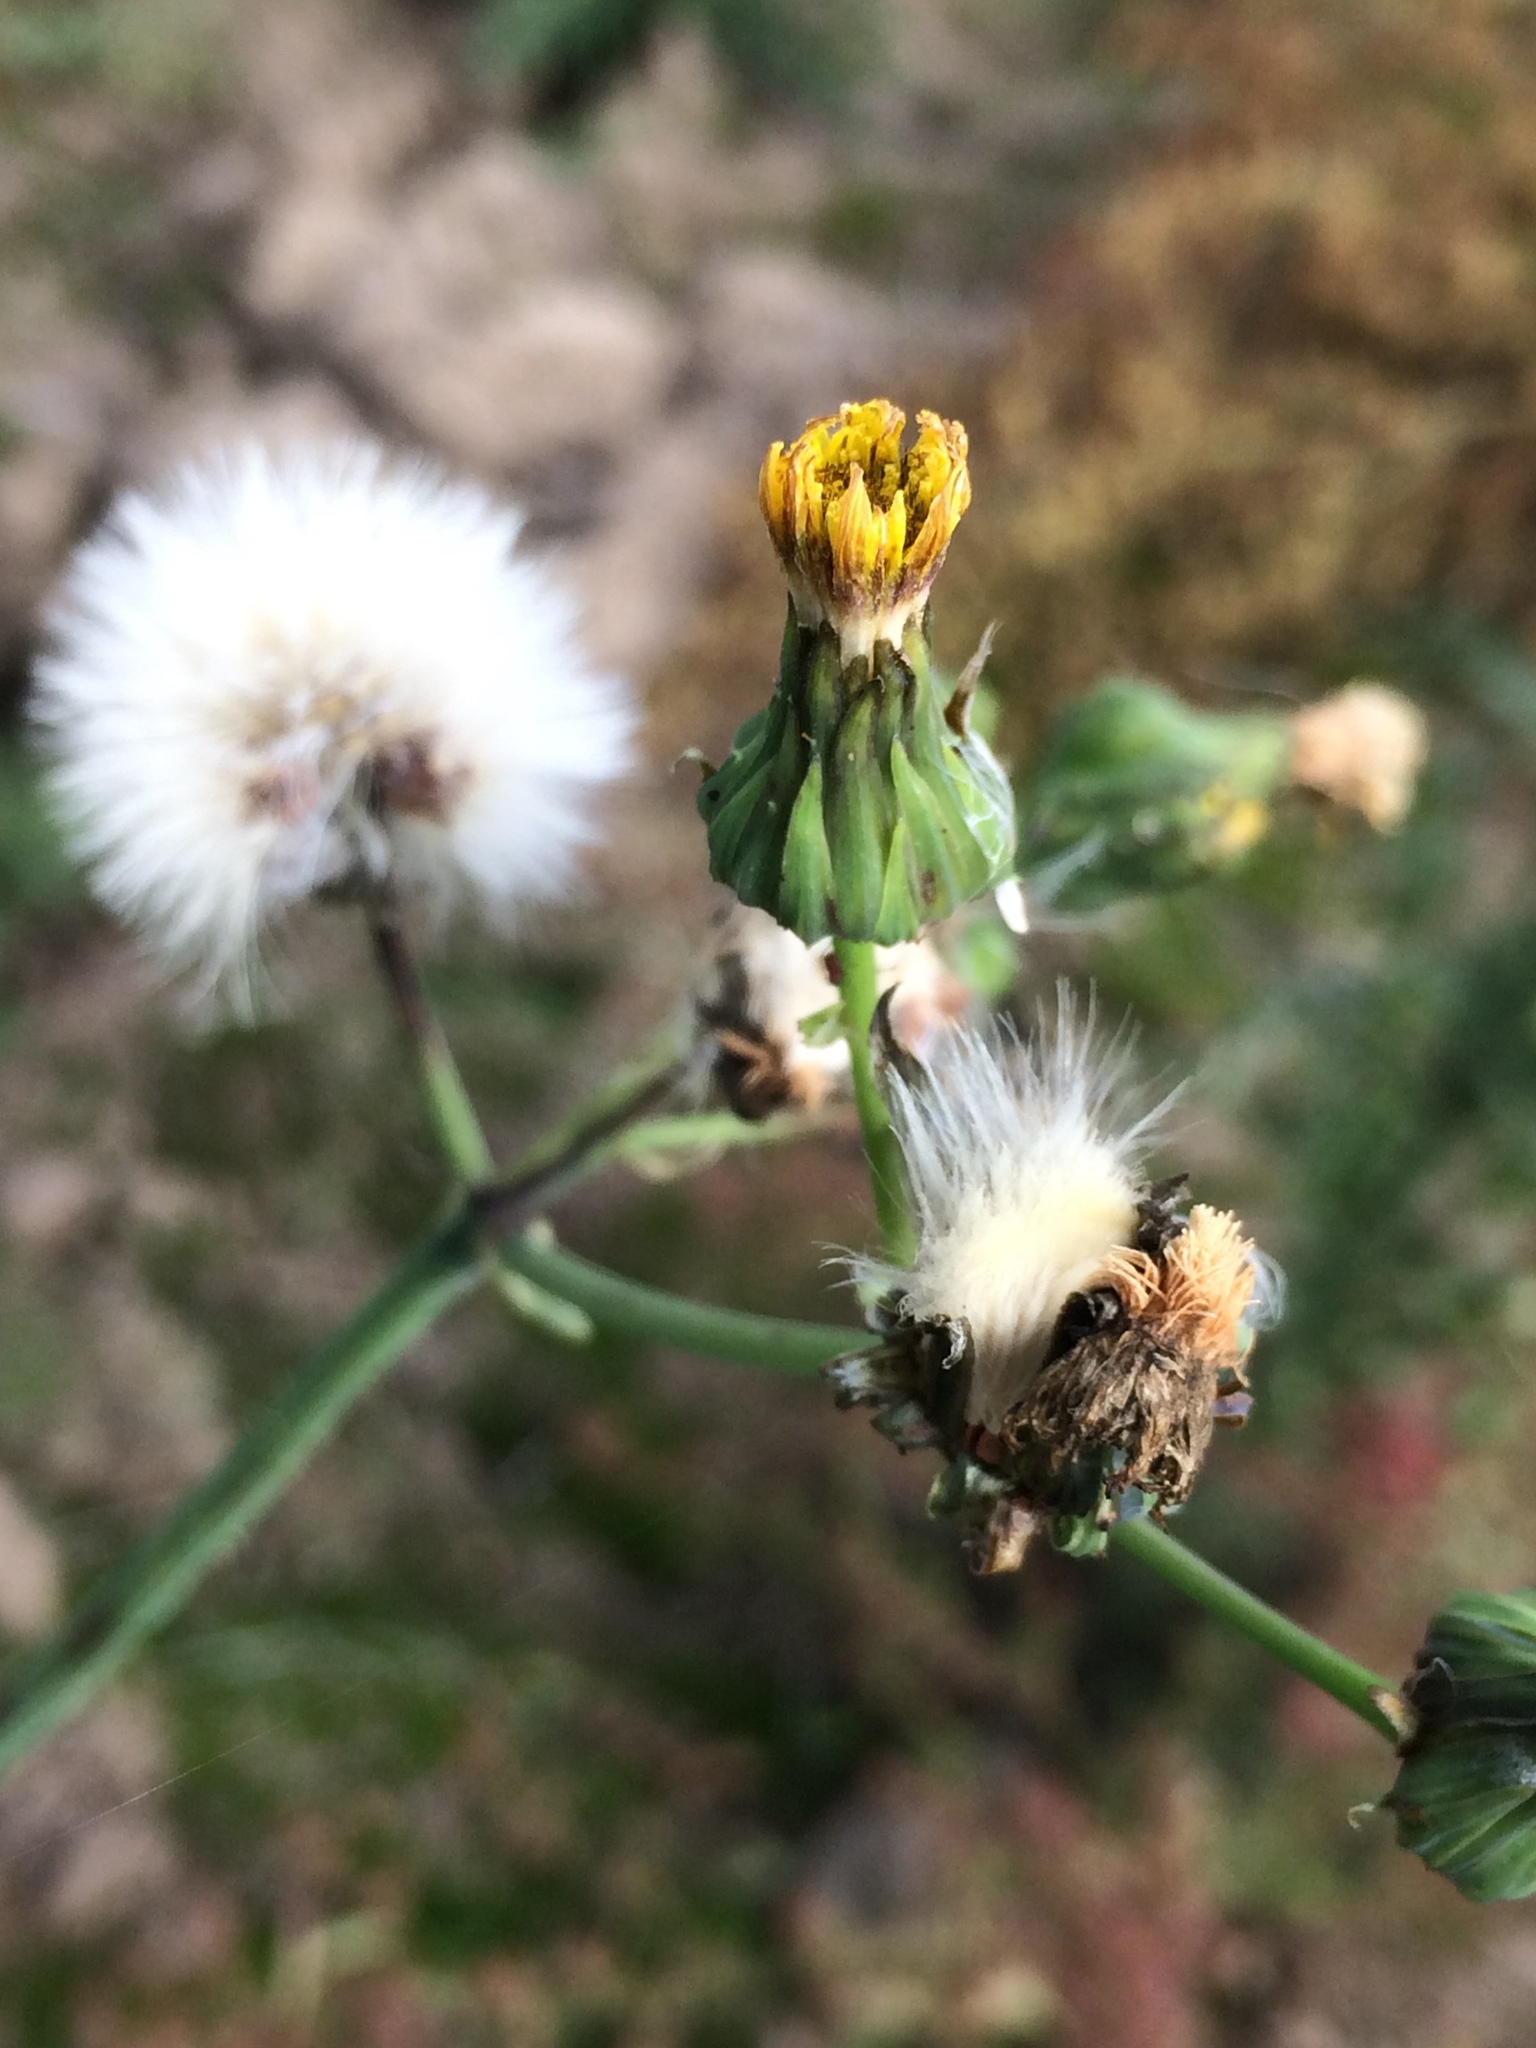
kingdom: Plantae
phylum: Tracheophyta
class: Magnoliopsida
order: Asterales
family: Asteraceae
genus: Sonchus
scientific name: Sonchus asper
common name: Prickly sow-thistle
